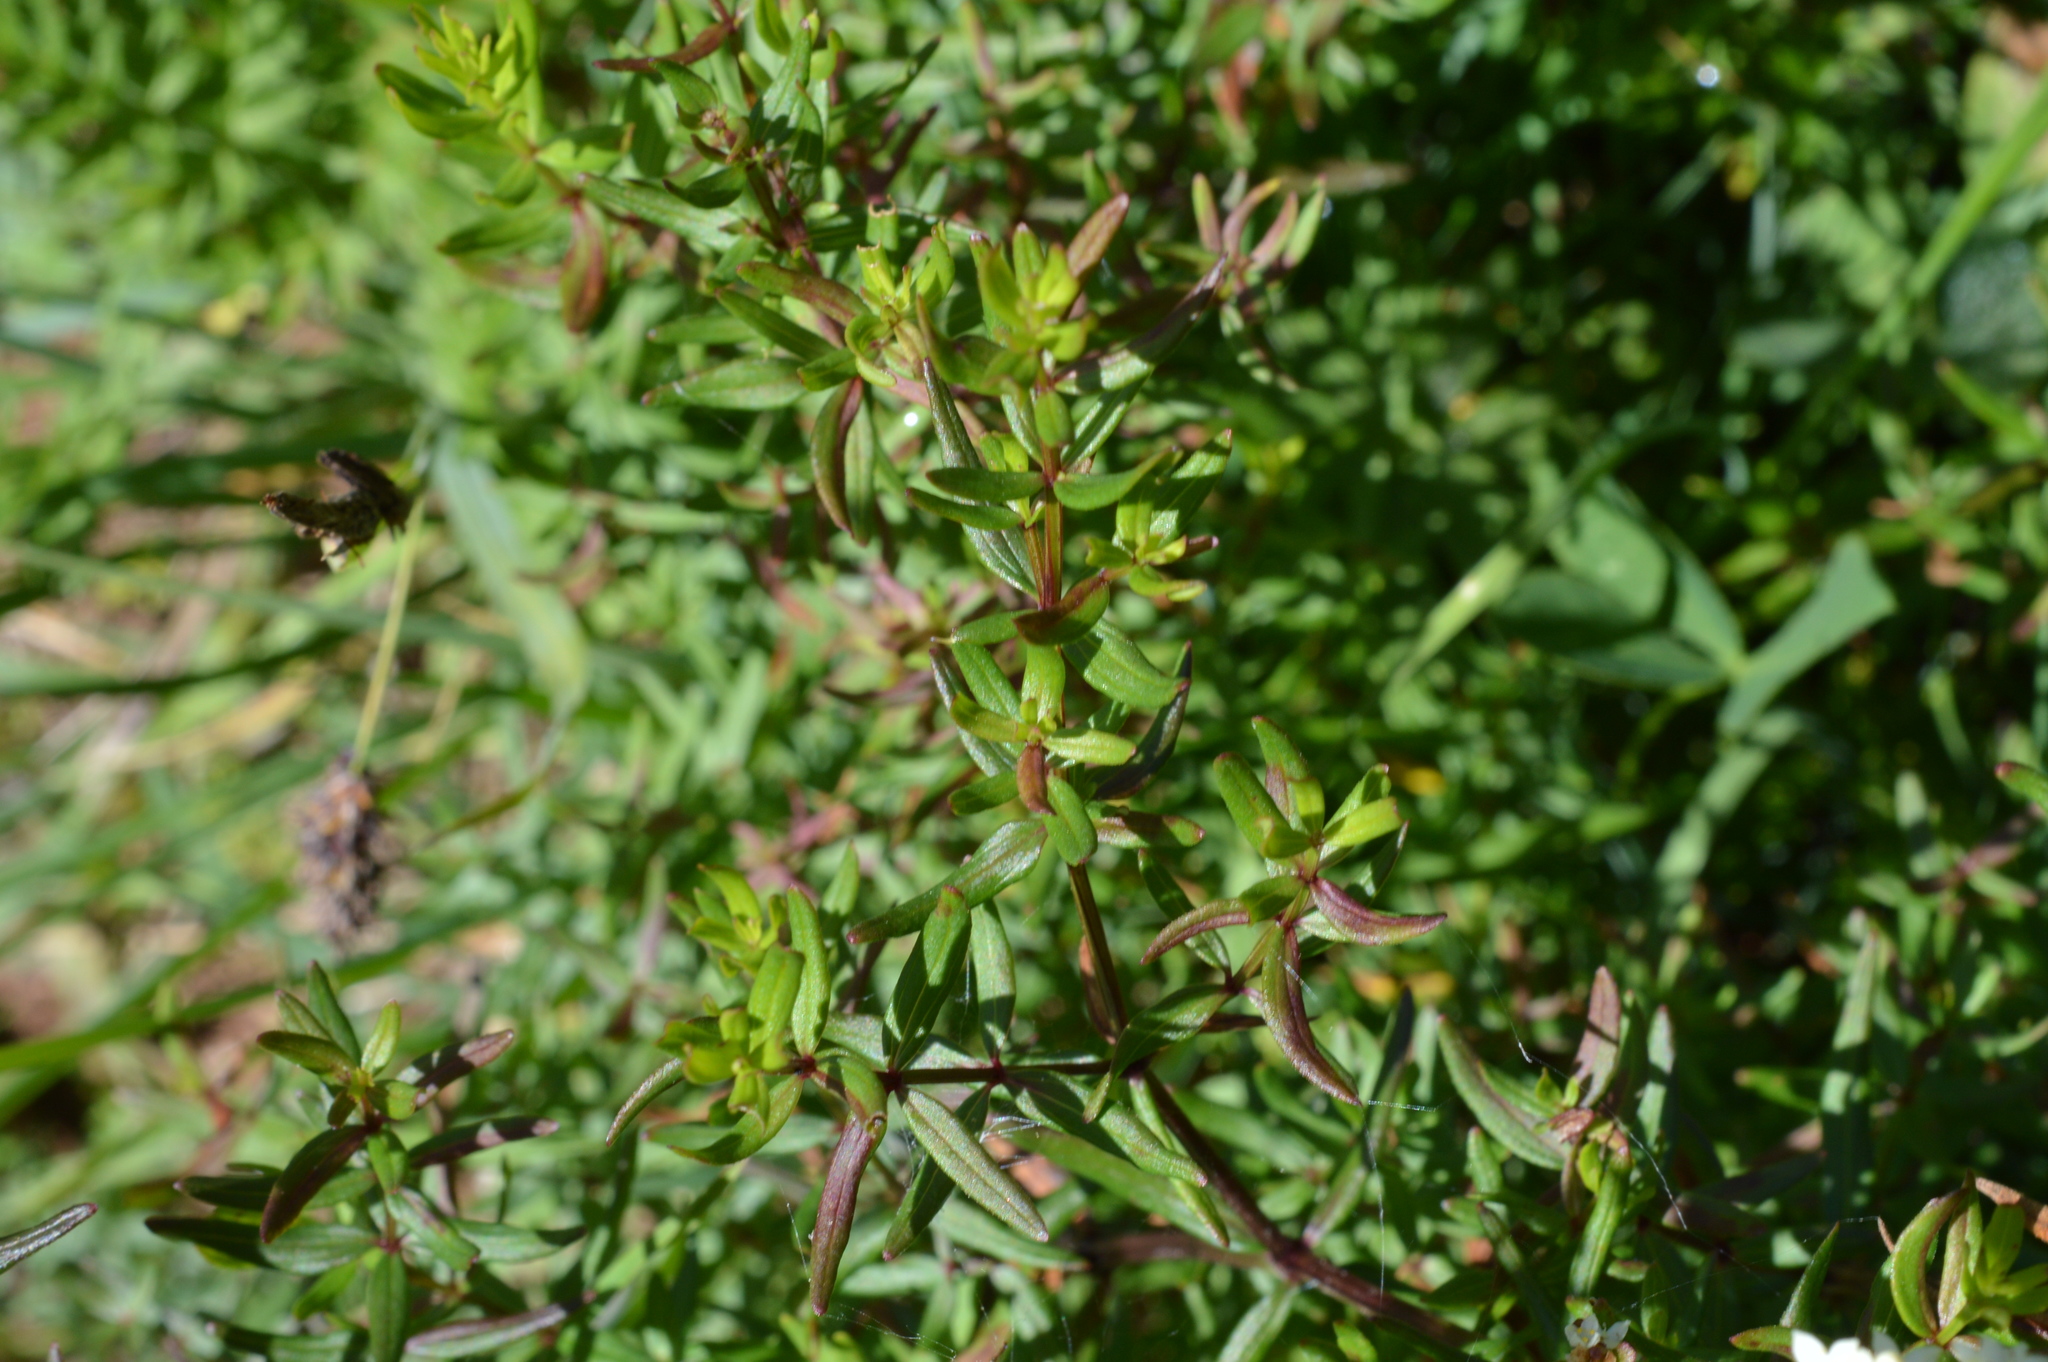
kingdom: Plantae
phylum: Tracheophyta
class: Magnoliopsida
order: Gentianales
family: Rubiaceae
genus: Galium
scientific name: Galium boreale
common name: Northern bedstraw
